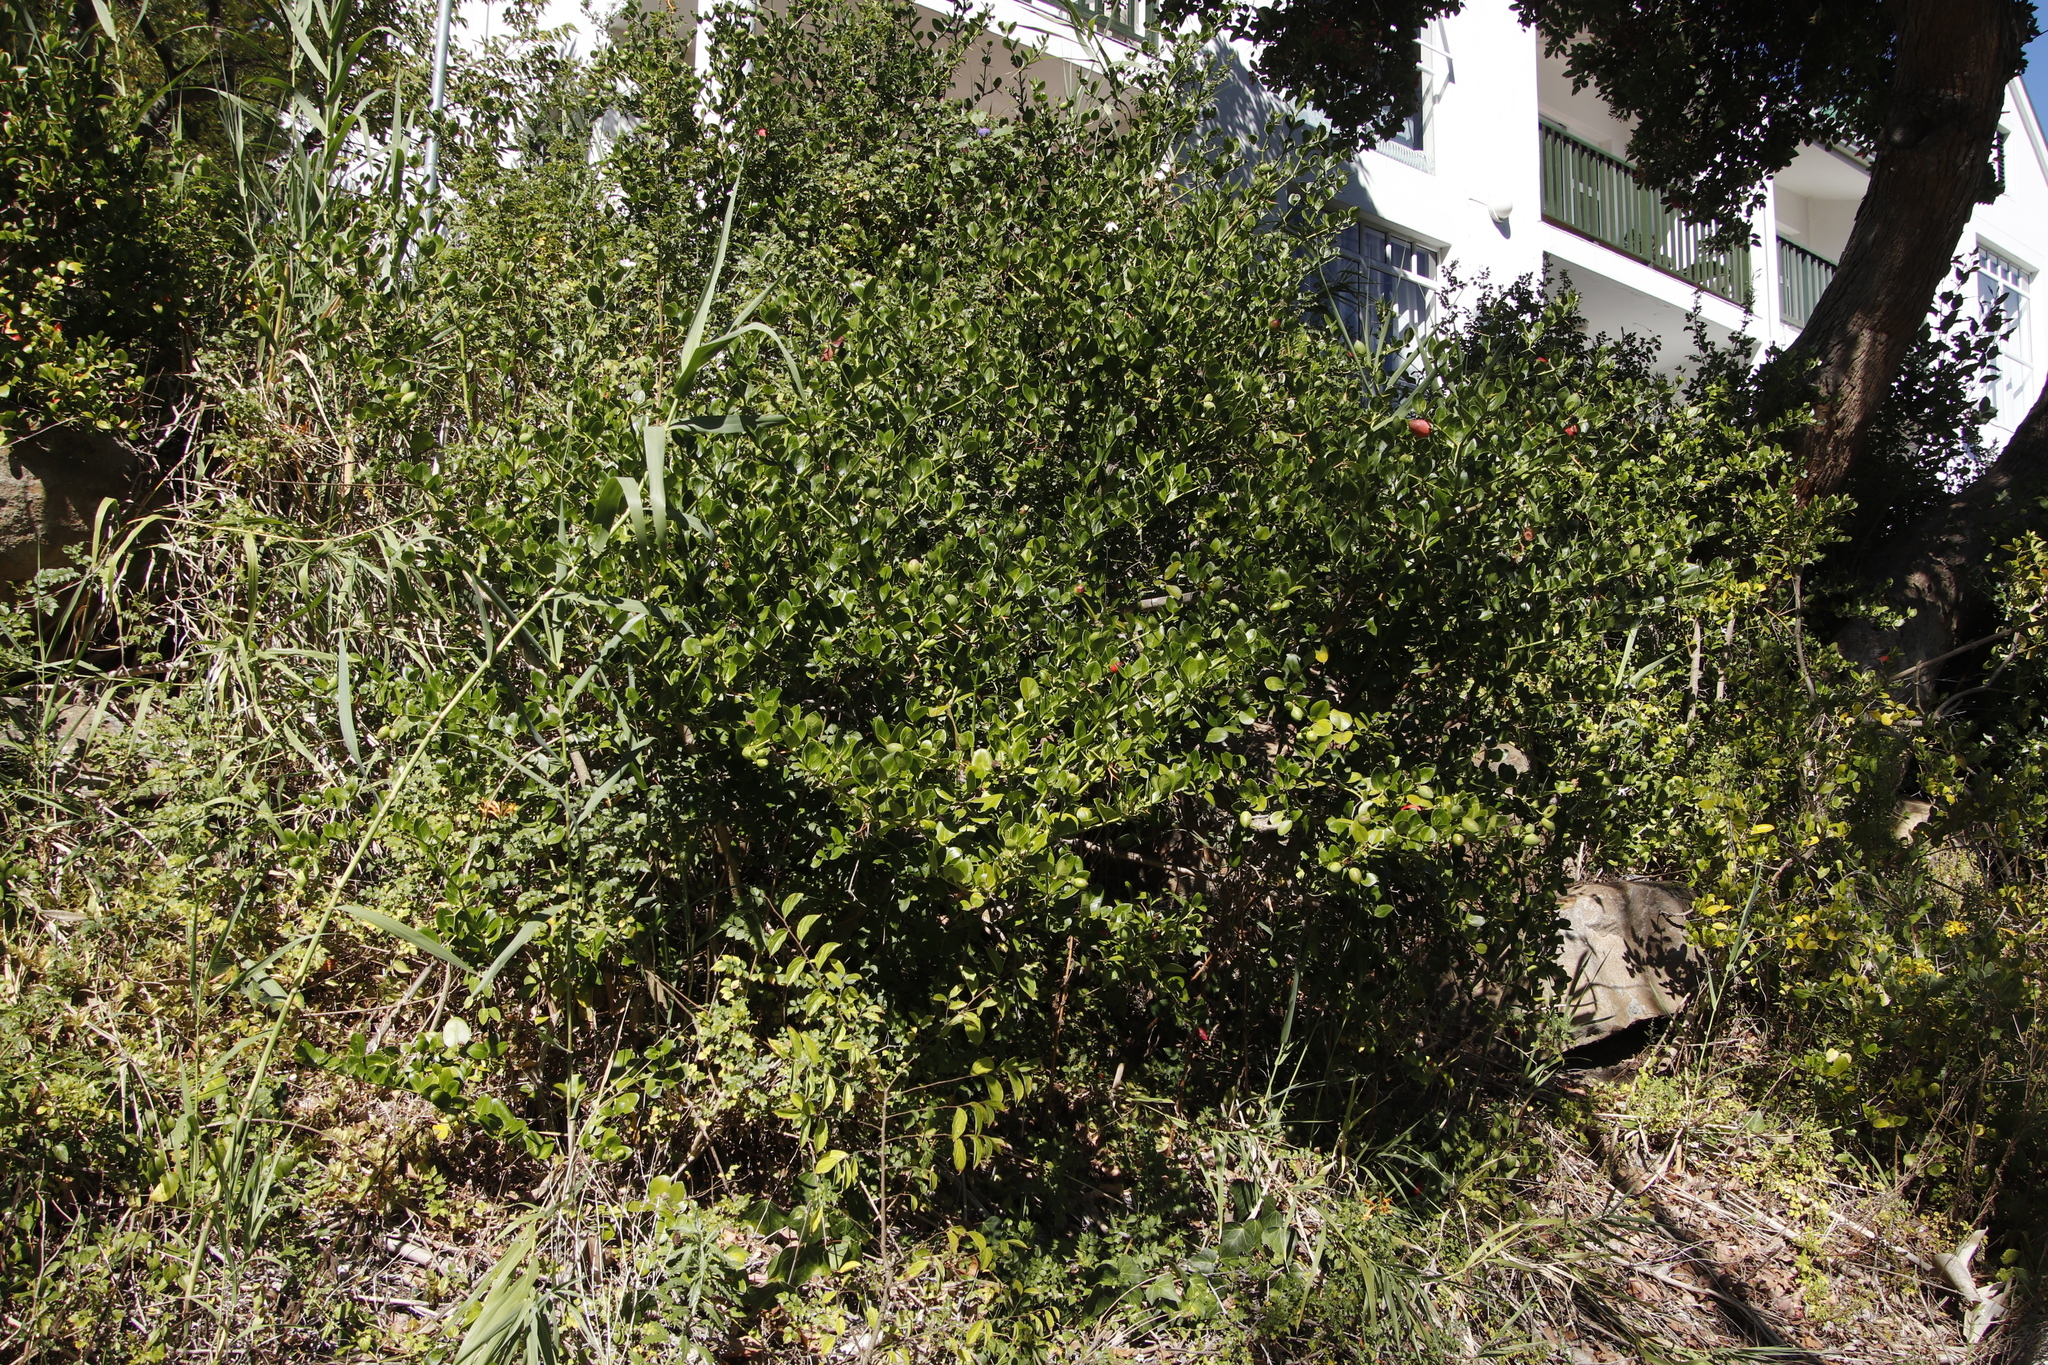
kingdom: Plantae
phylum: Tracheophyta
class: Magnoliopsida
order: Gentianales
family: Apocynaceae
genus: Carissa
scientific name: Carissa macrocarpa
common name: Natal plum
